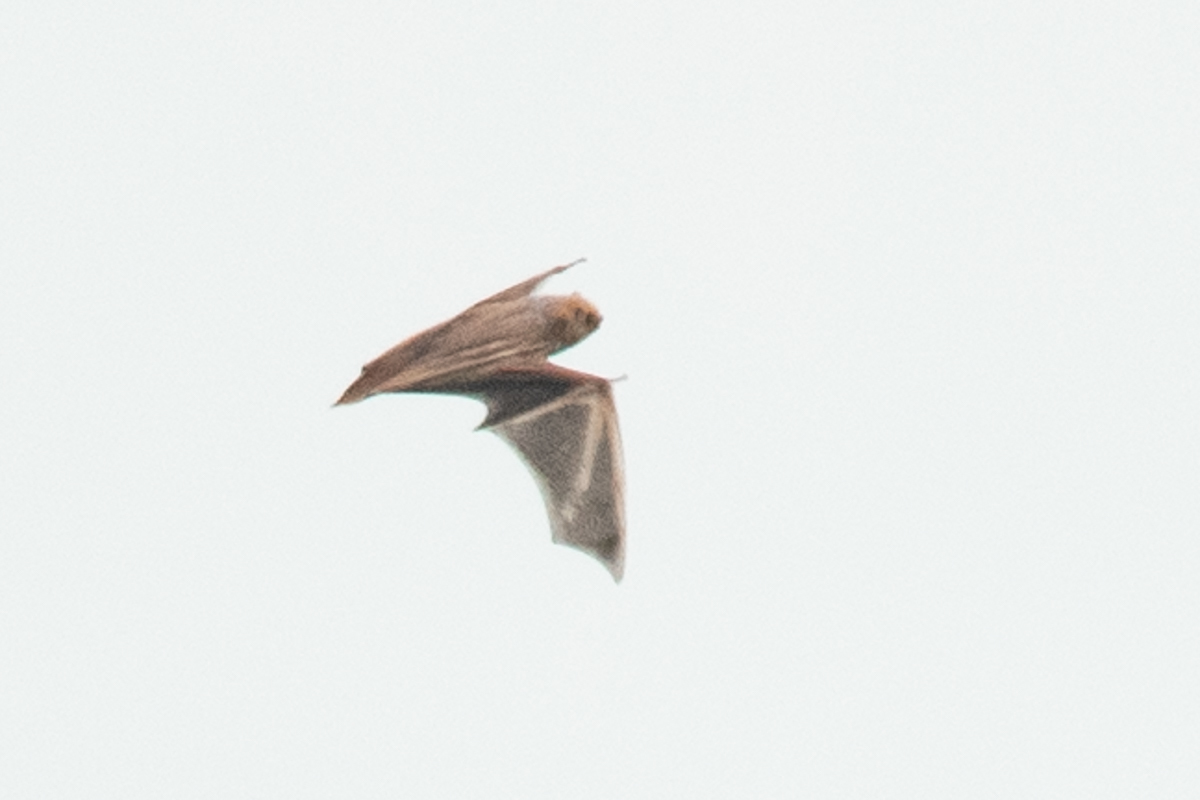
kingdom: Animalia
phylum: Chordata
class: Mammalia
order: Chiroptera
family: Vespertilionidae
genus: Lasiurus
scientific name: Lasiurus borealis
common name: Eastern red bat
